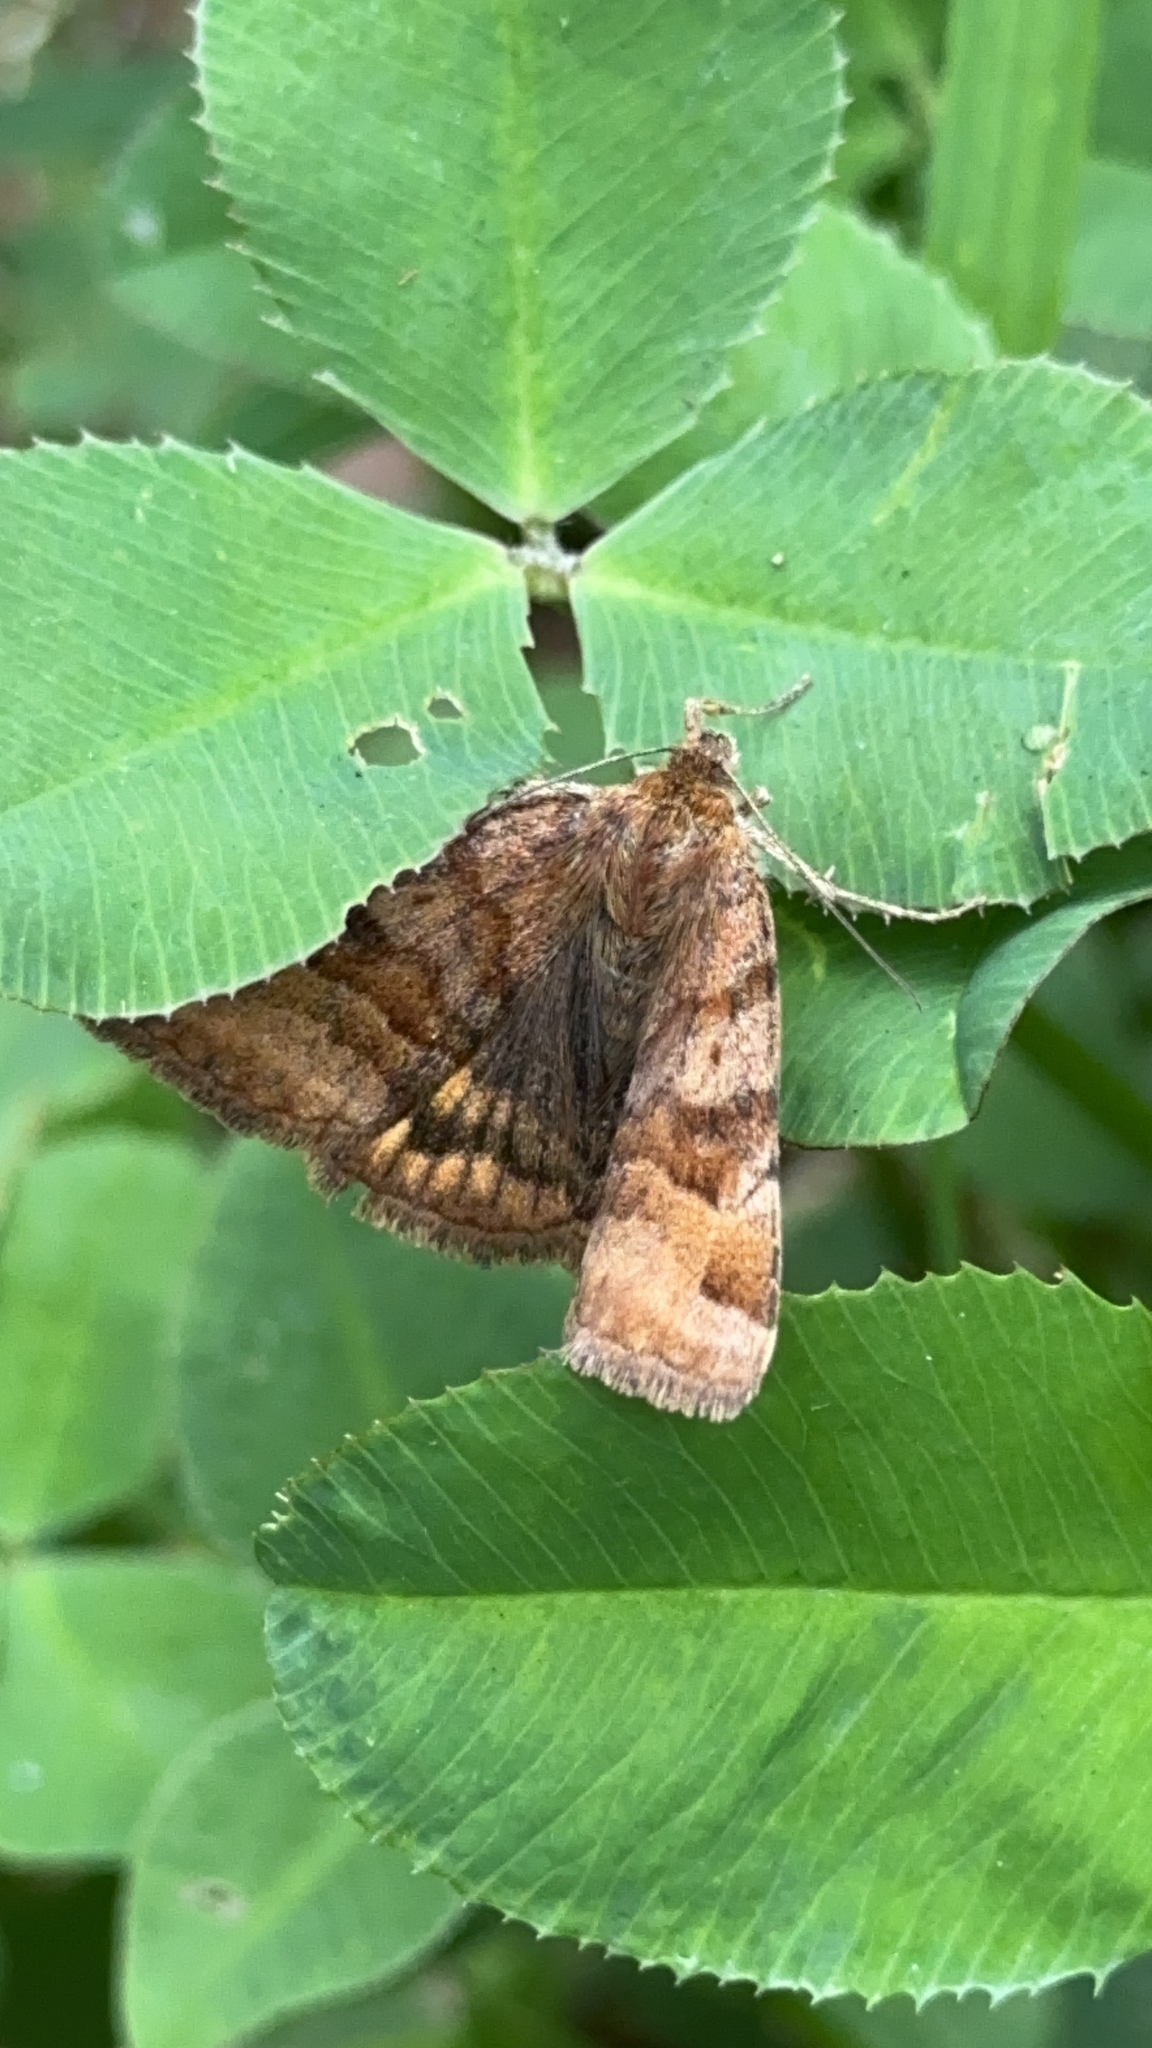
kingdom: Animalia
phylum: Arthropoda
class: Insecta
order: Lepidoptera
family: Erebidae
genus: Euclidia
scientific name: Euclidia glyphica
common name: Burnet companion
